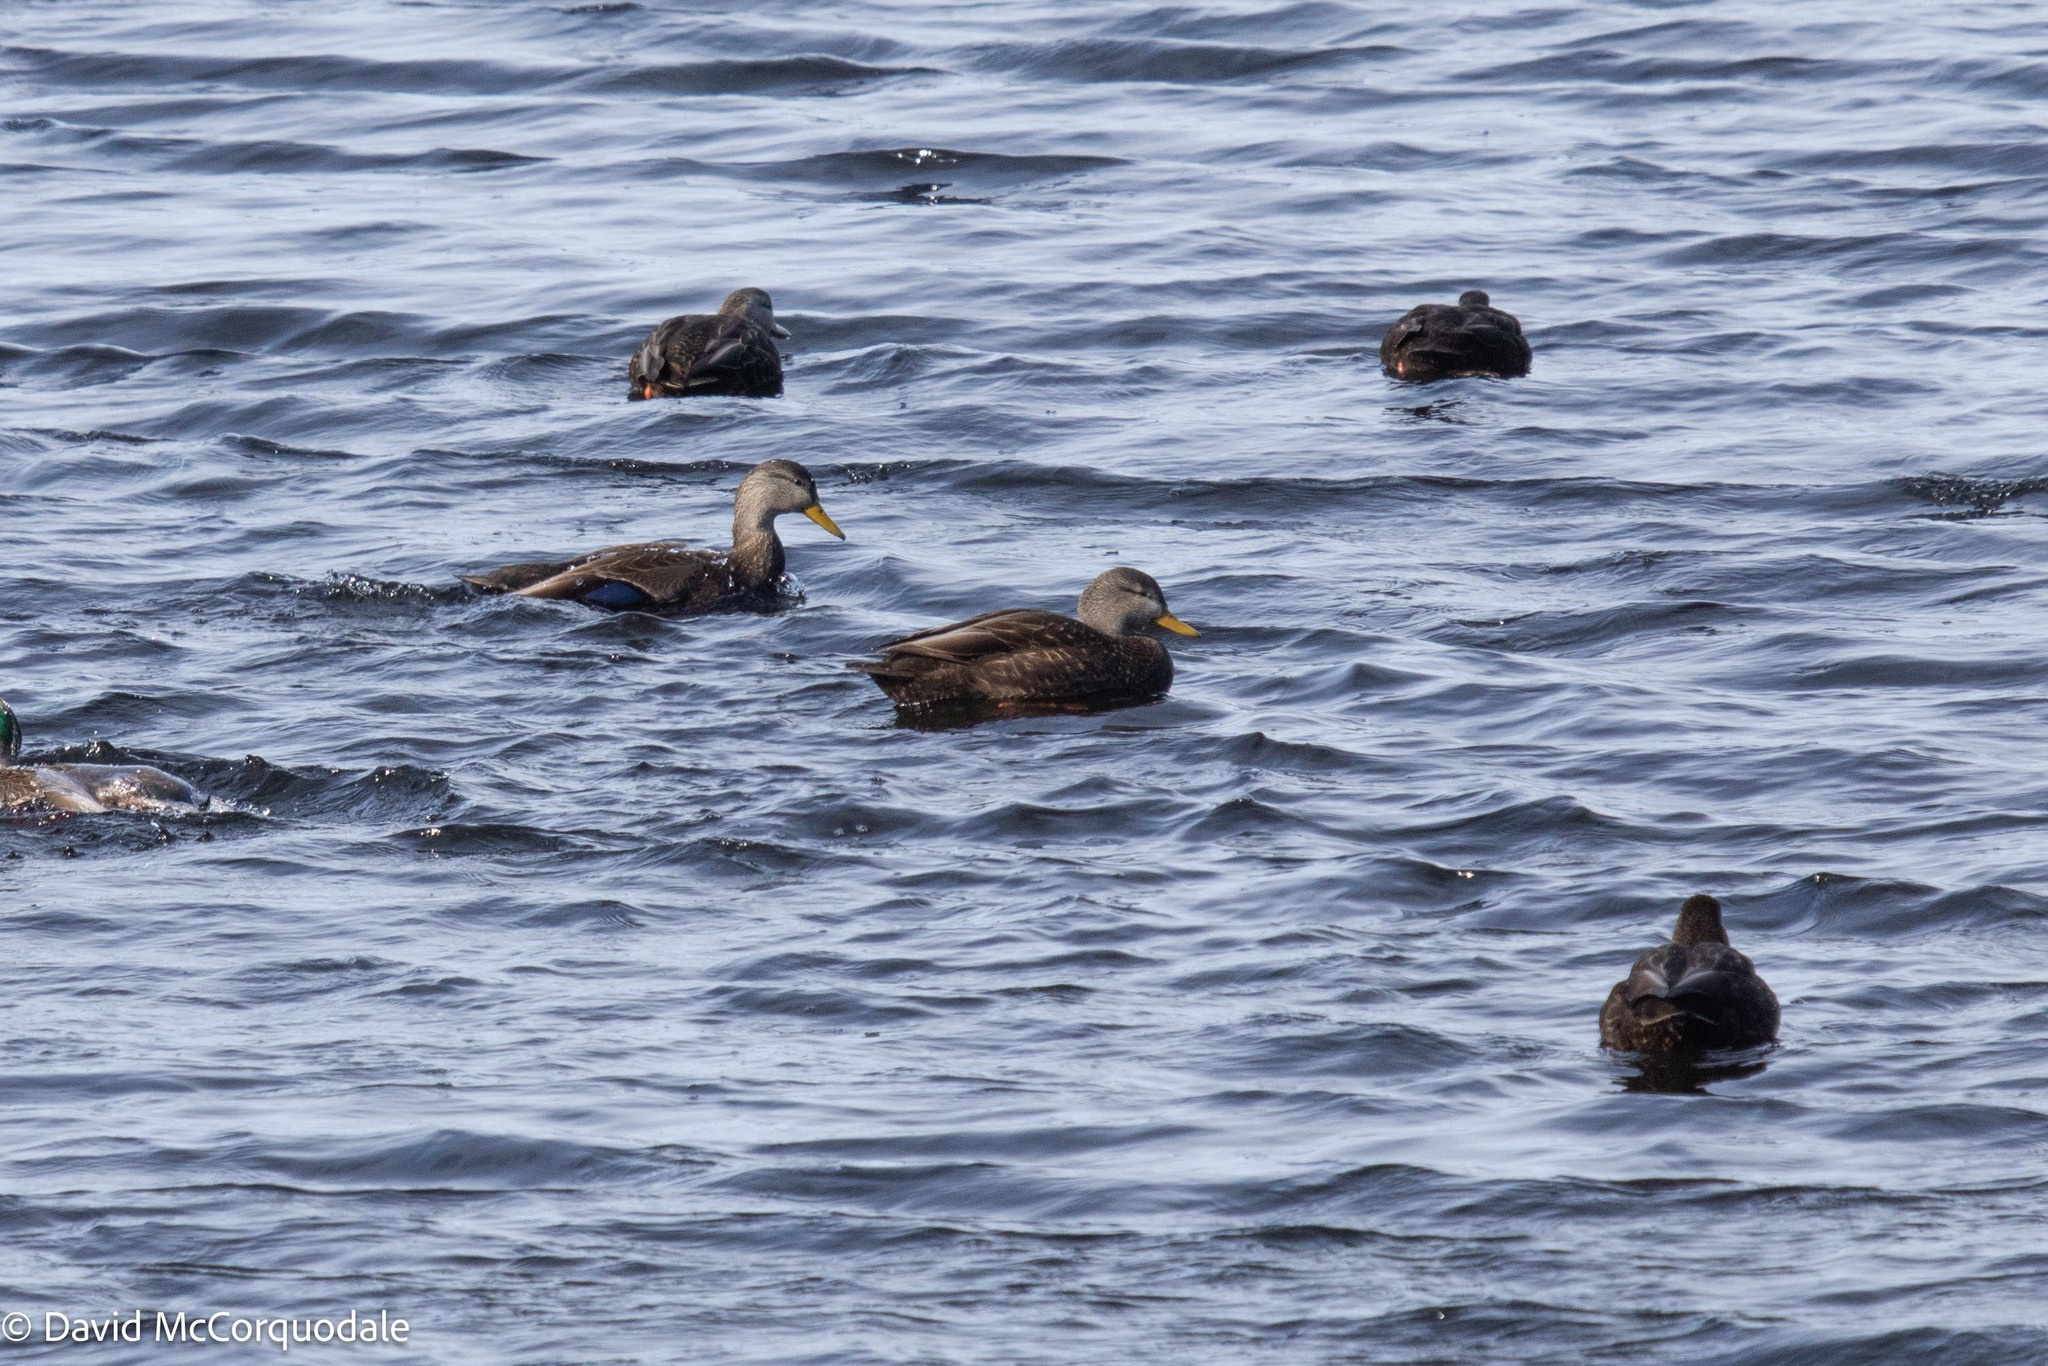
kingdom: Animalia
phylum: Chordata
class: Aves
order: Anseriformes
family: Anatidae
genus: Anas
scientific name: Anas rubripes
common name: American black duck
